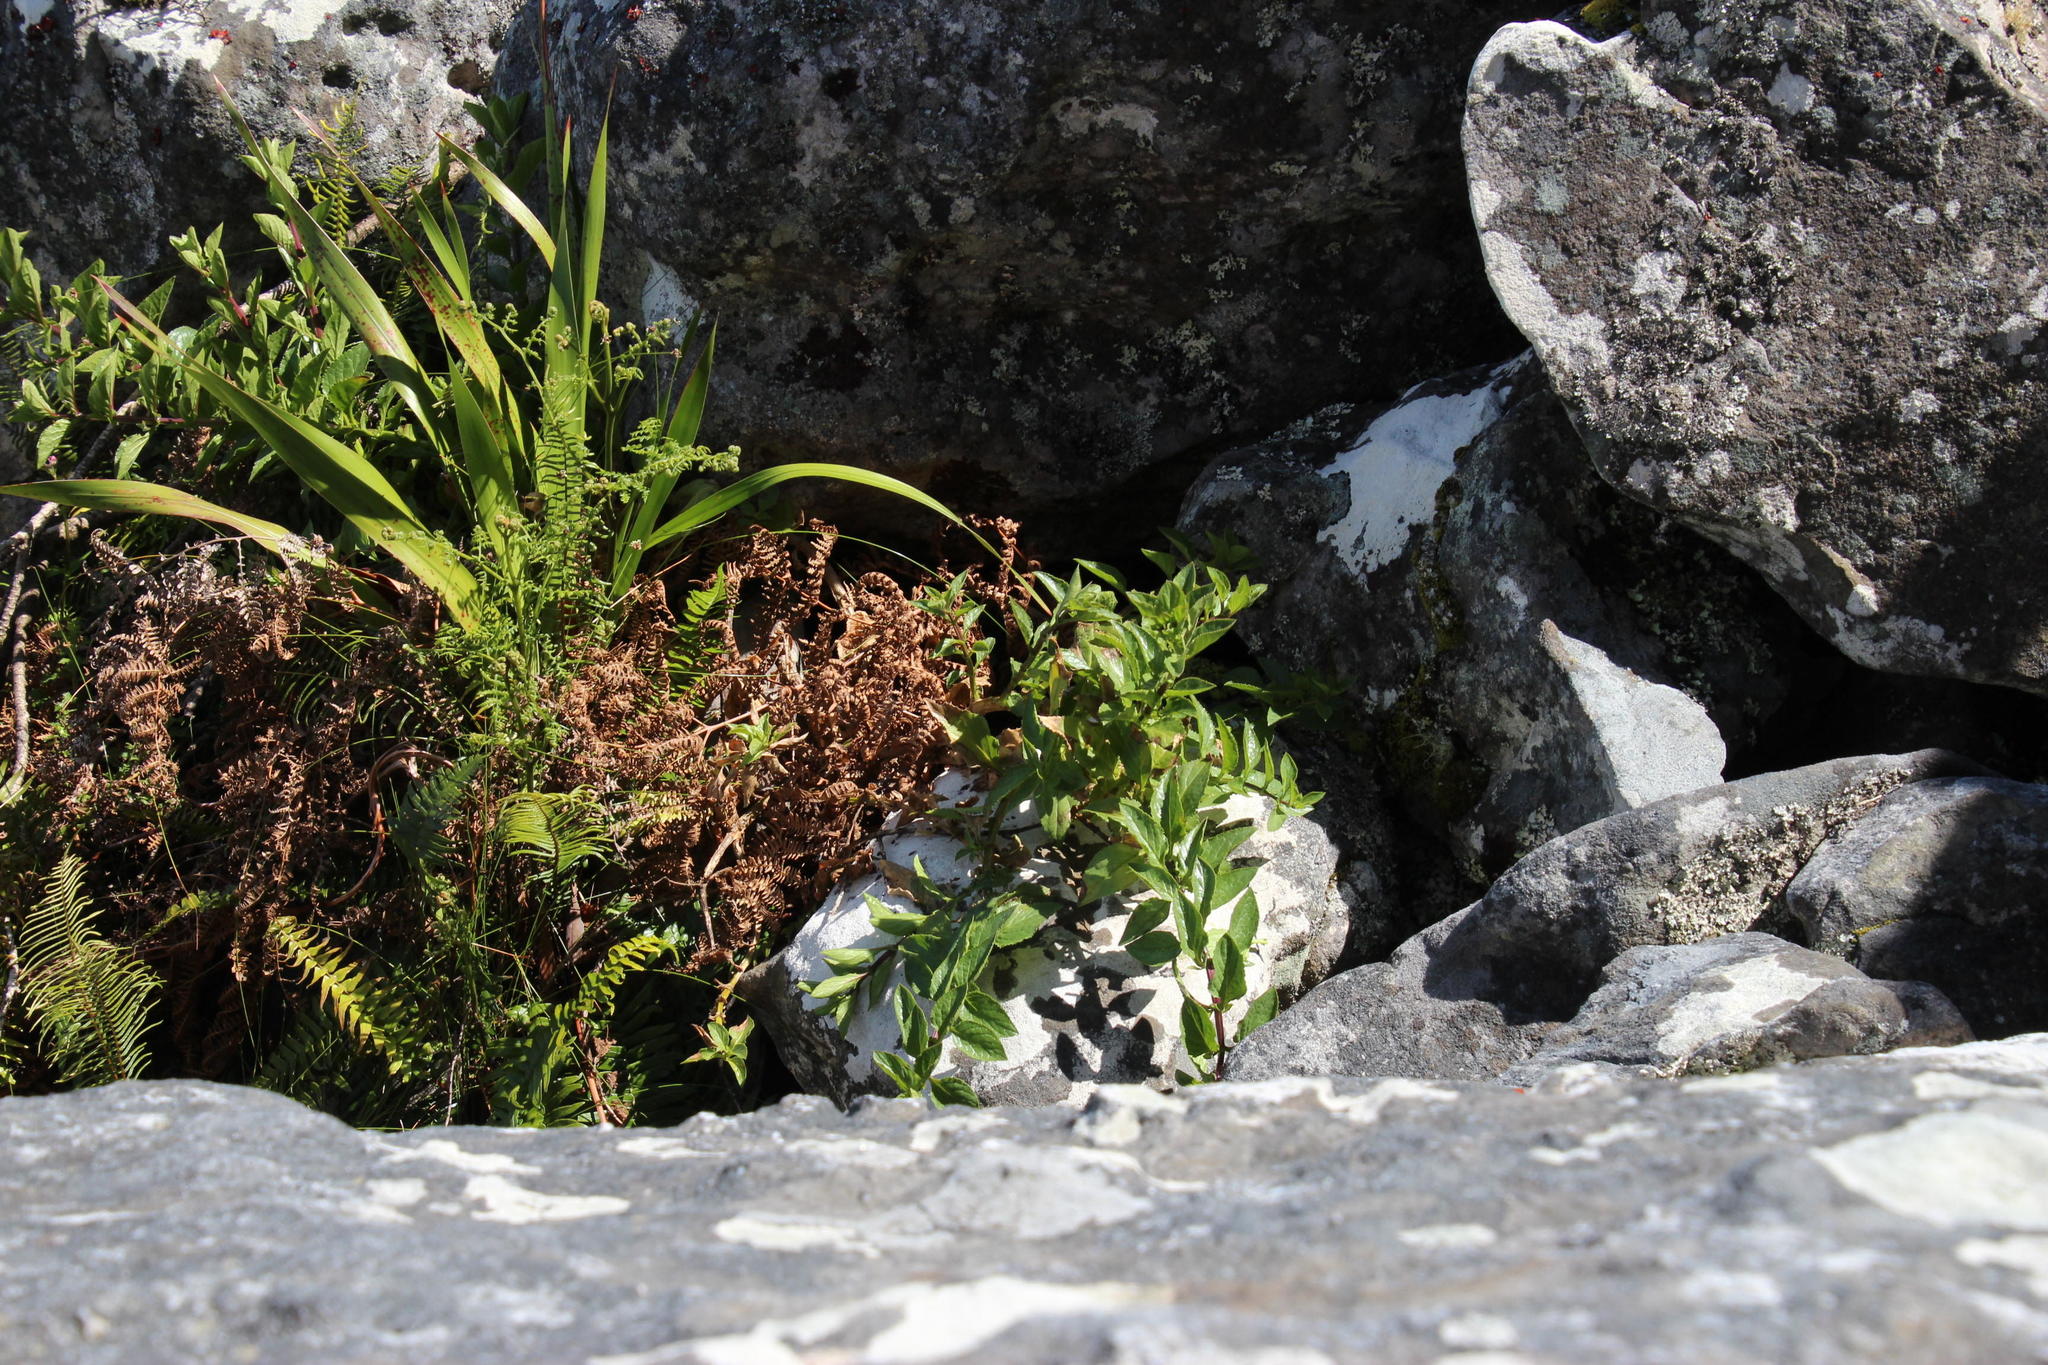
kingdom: Plantae
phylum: Tracheophyta
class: Magnoliopsida
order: Lamiales
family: Scrophulariaceae
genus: Teedia
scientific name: Teedia lucida
